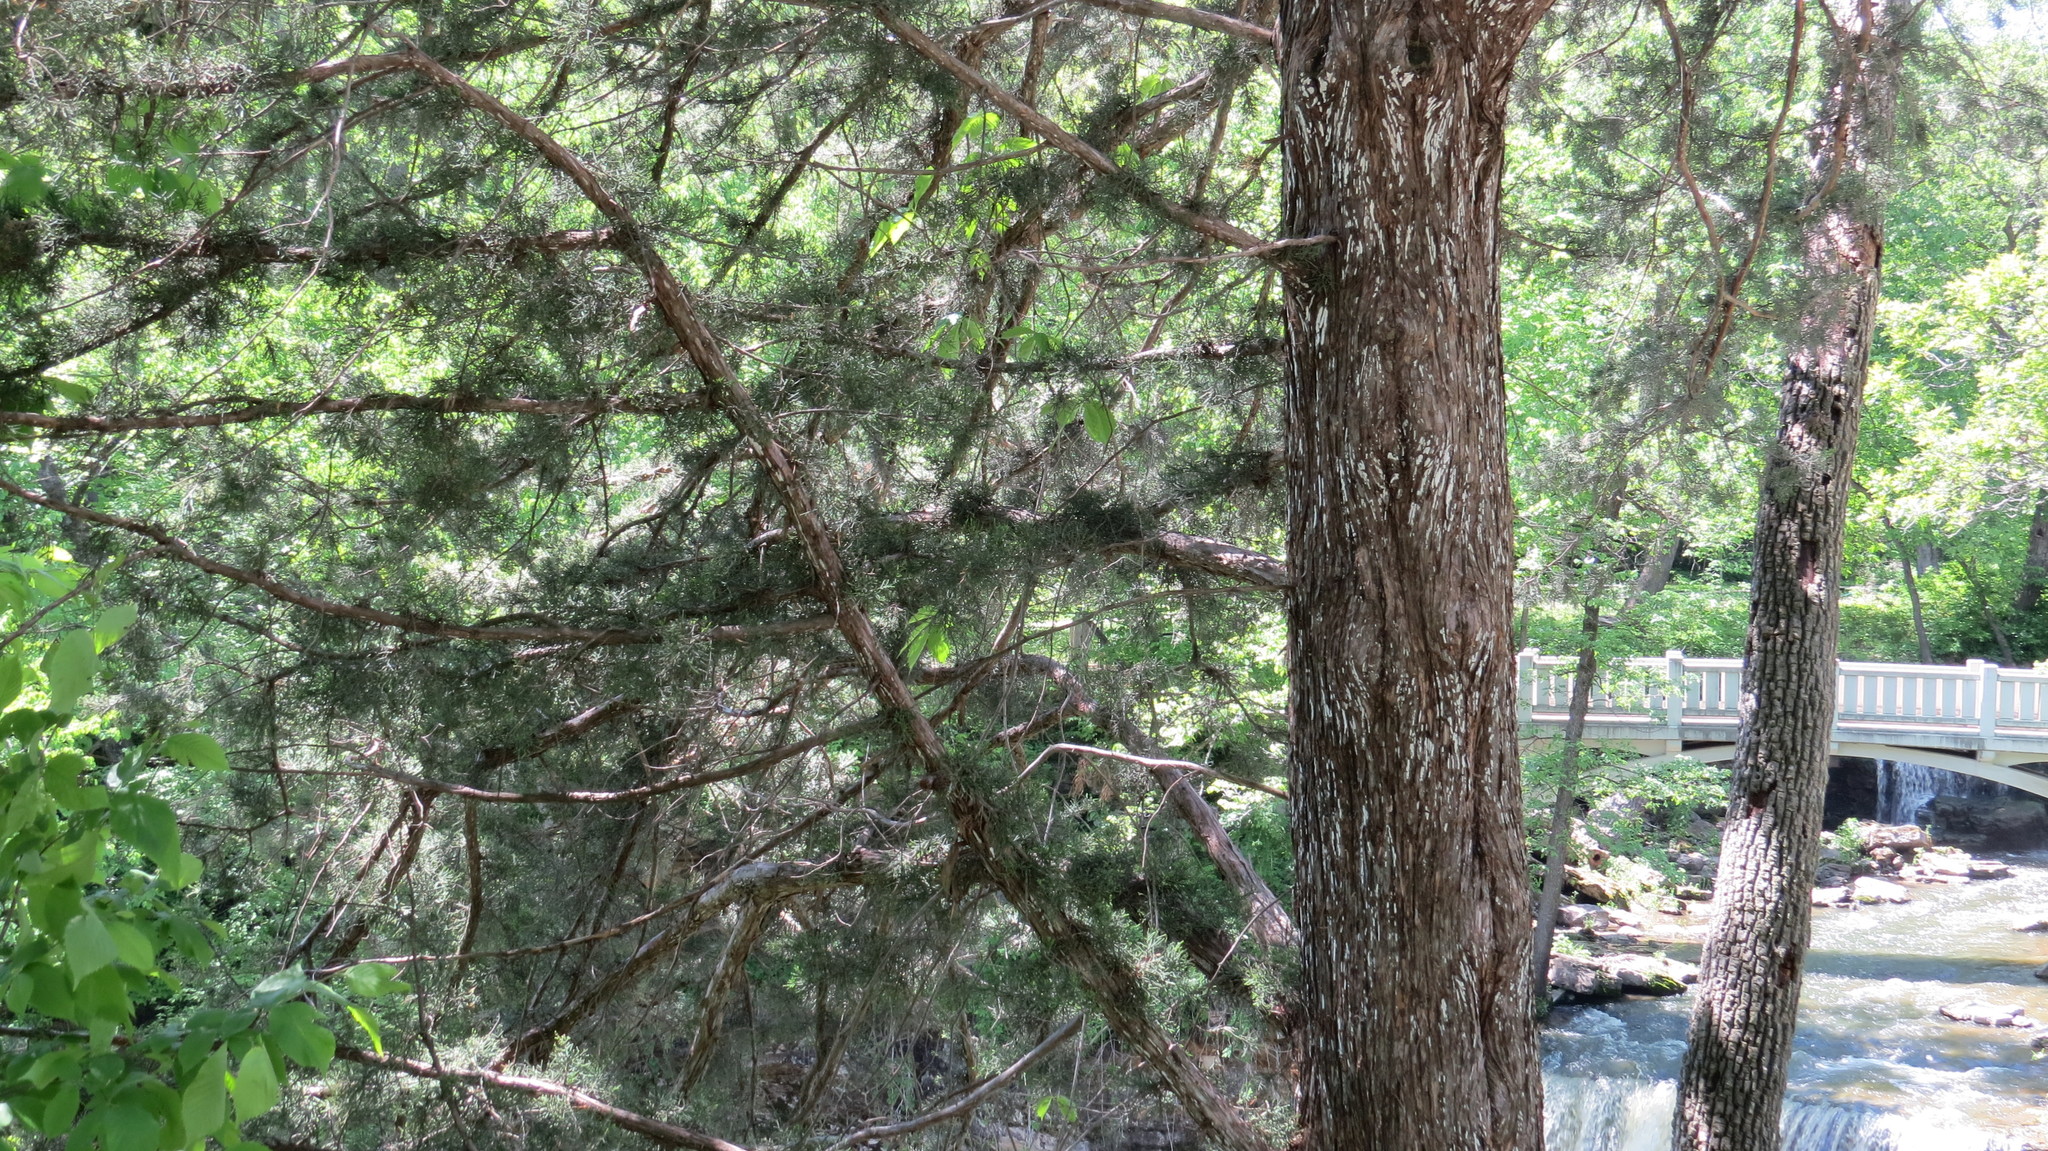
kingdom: Plantae
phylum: Tracheophyta
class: Pinopsida
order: Pinales
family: Cupressaceae
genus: Juniperus
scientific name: Juniperus virginiana
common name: Red juniper
